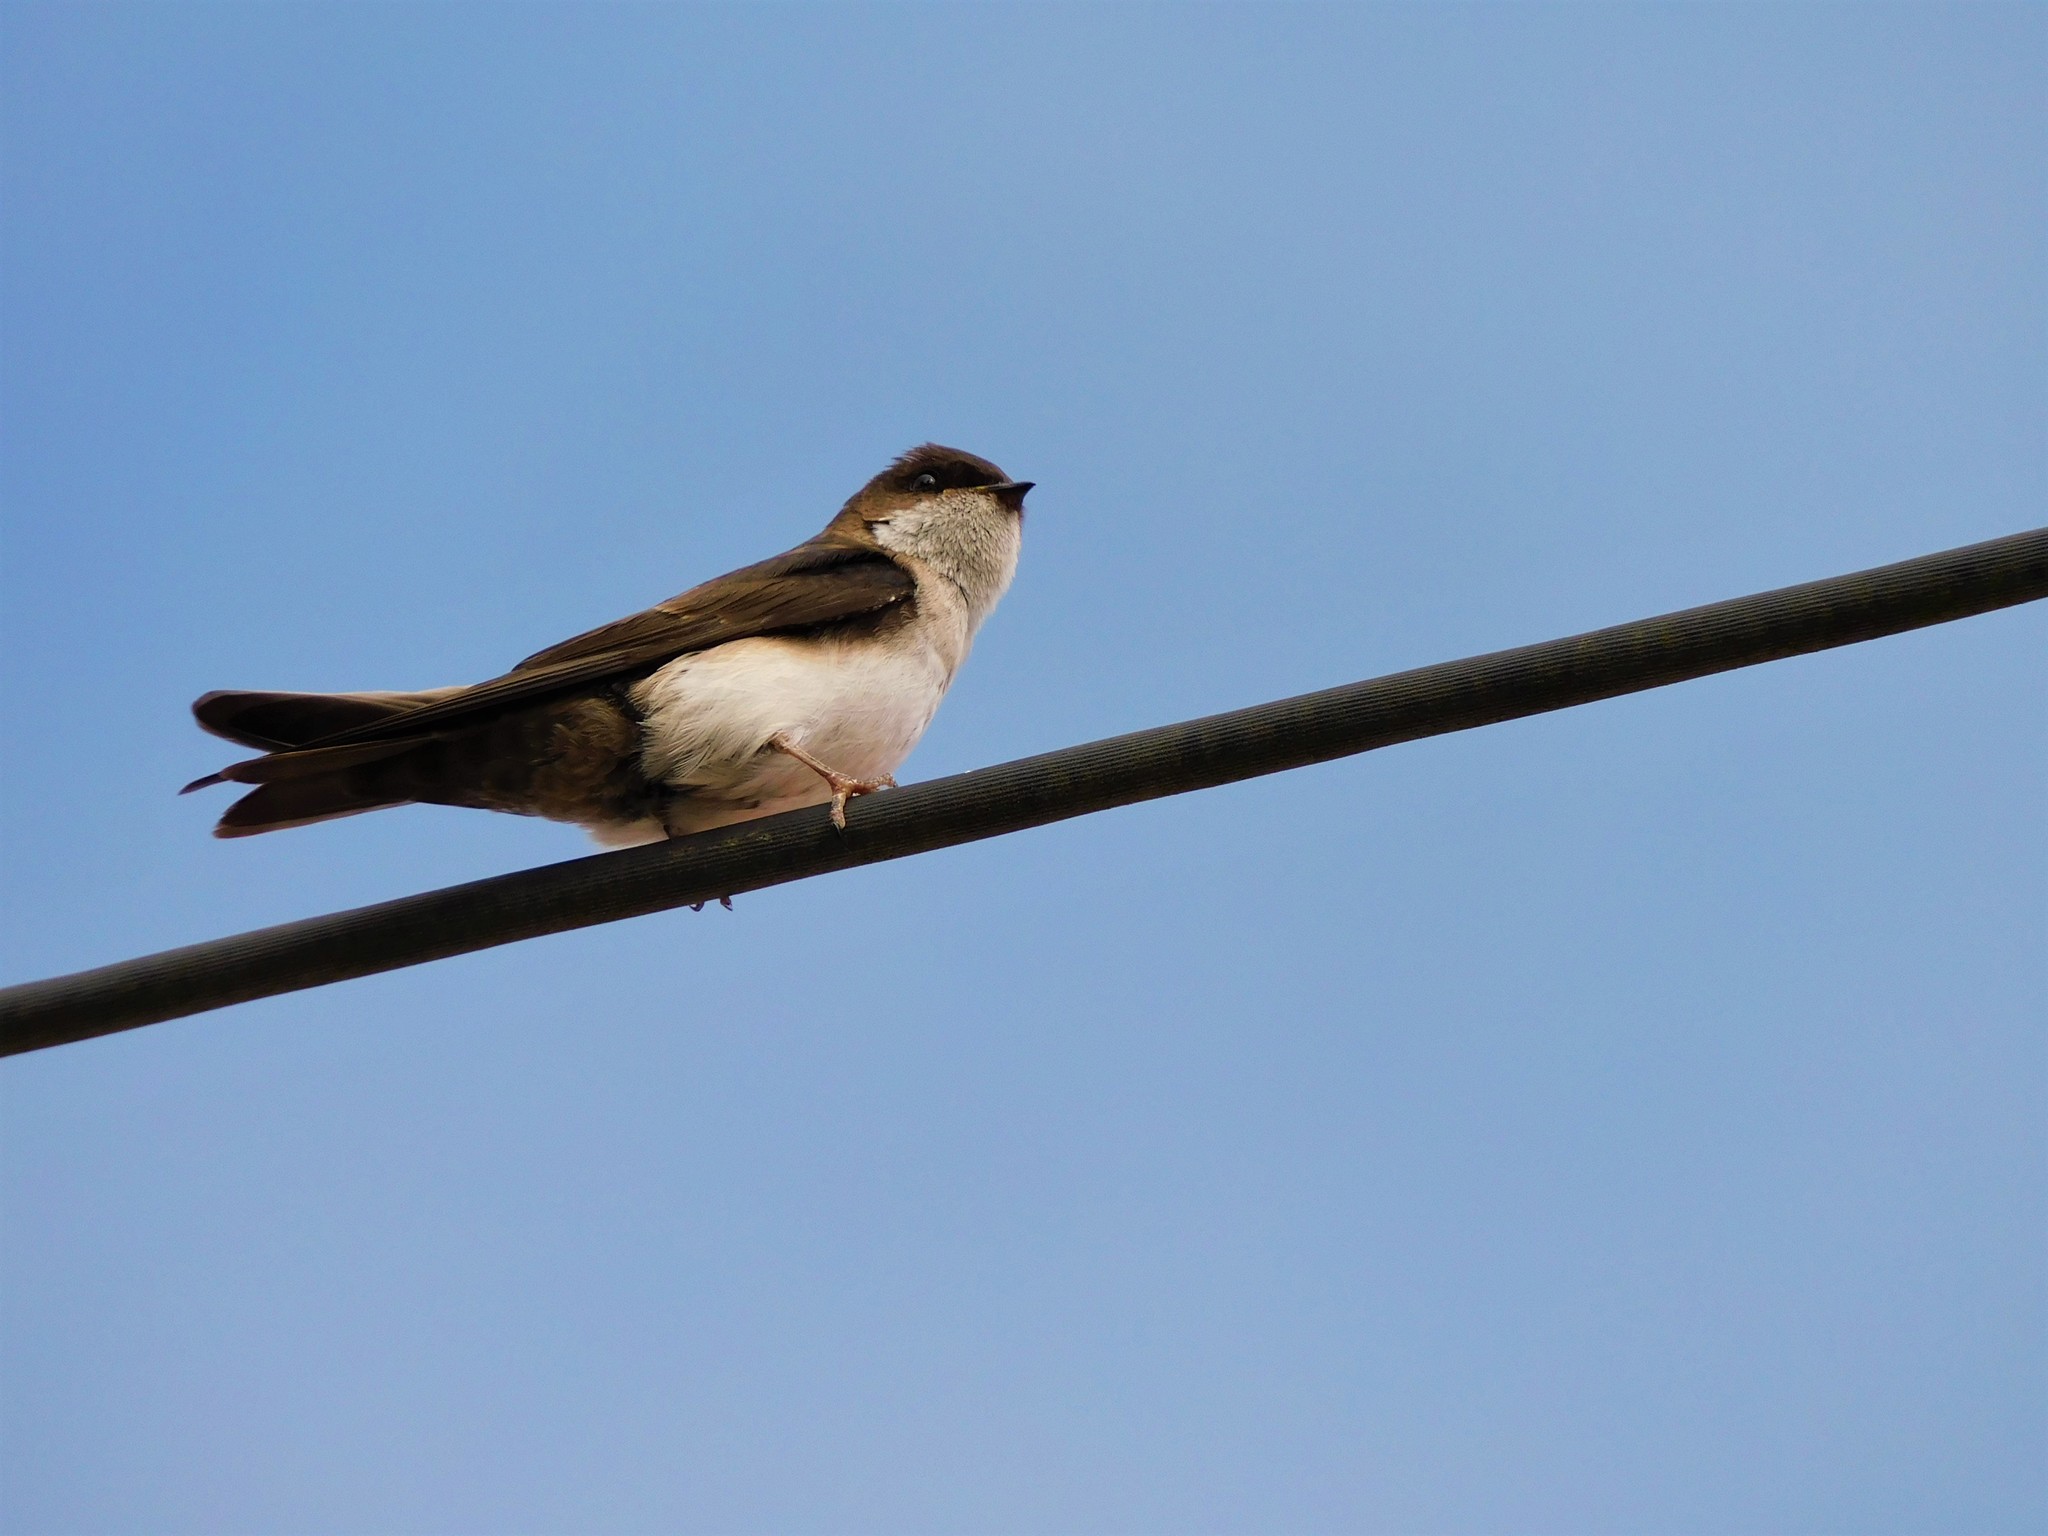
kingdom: Animalia
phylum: Chordata
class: Aves
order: Passeriformes
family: Hirundinidae
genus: Notiochelidon
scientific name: Notiochelidon cyanoleuca
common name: Blue-and-white swallow
